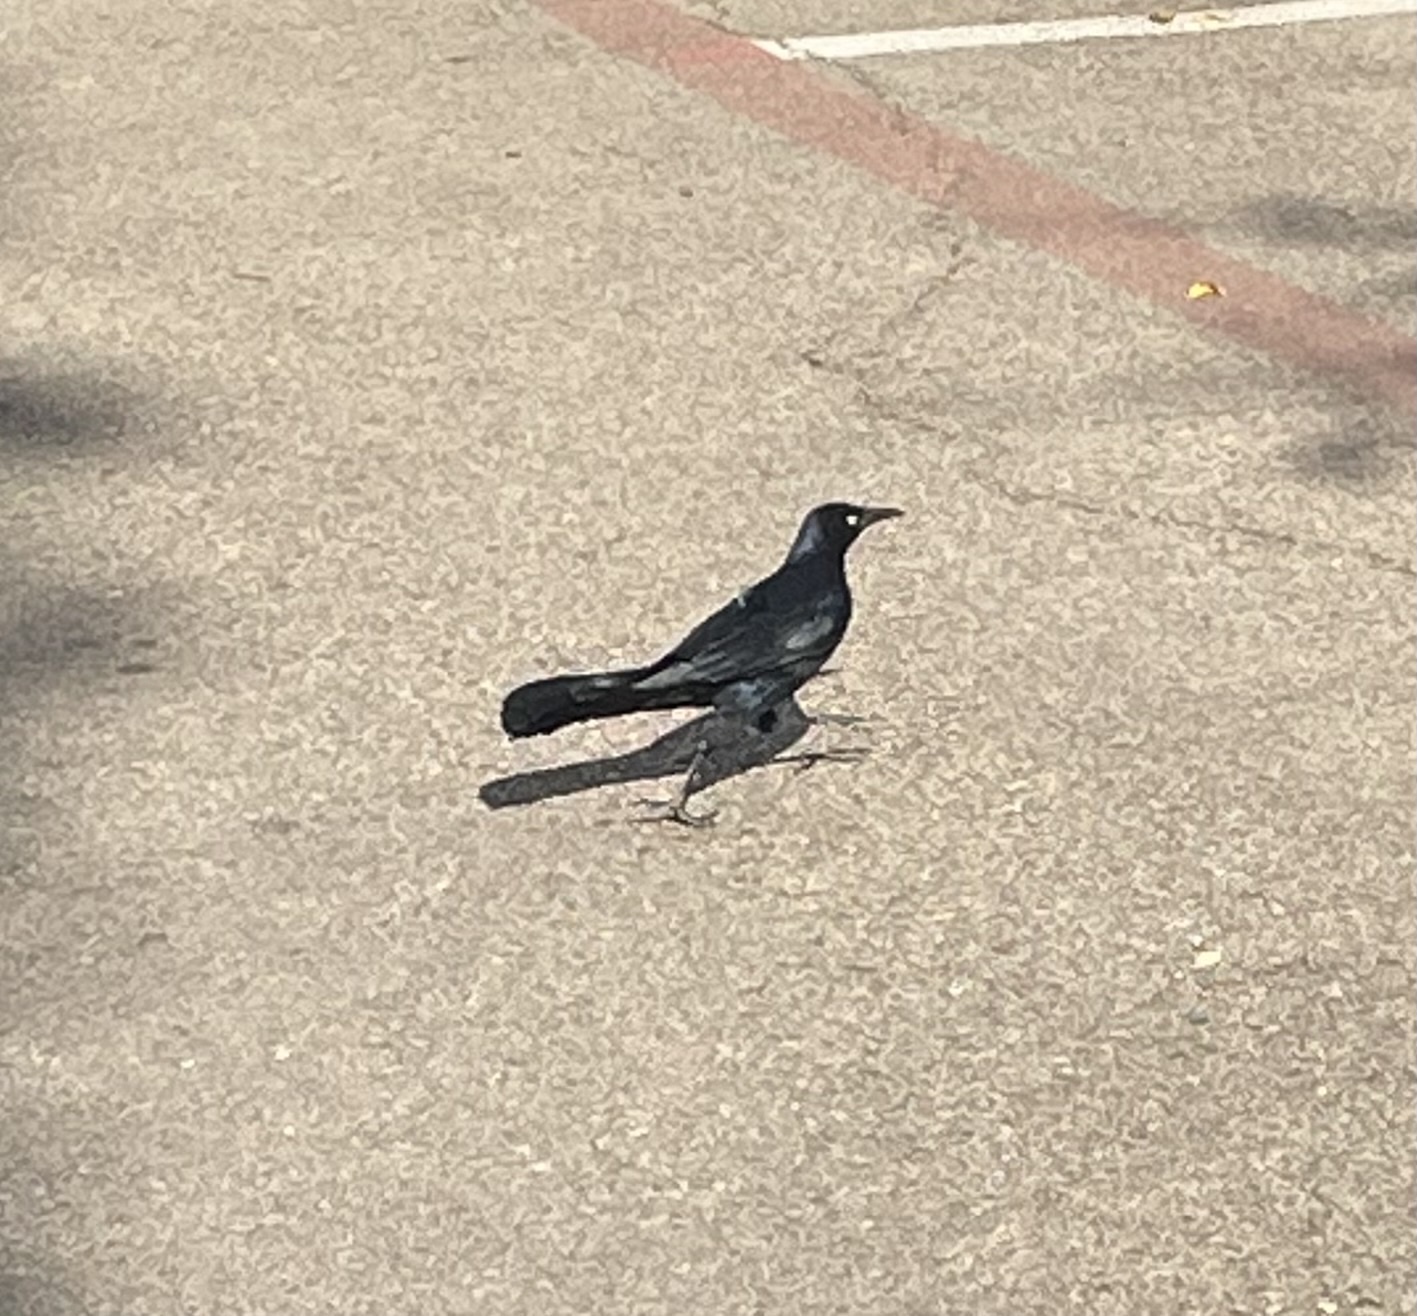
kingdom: Animalia
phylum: Chordata
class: Aves
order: Passeriformes
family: Icteridae
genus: Quiscalus
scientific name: Quiscalus mexicanus
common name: Great-tailed grackle
